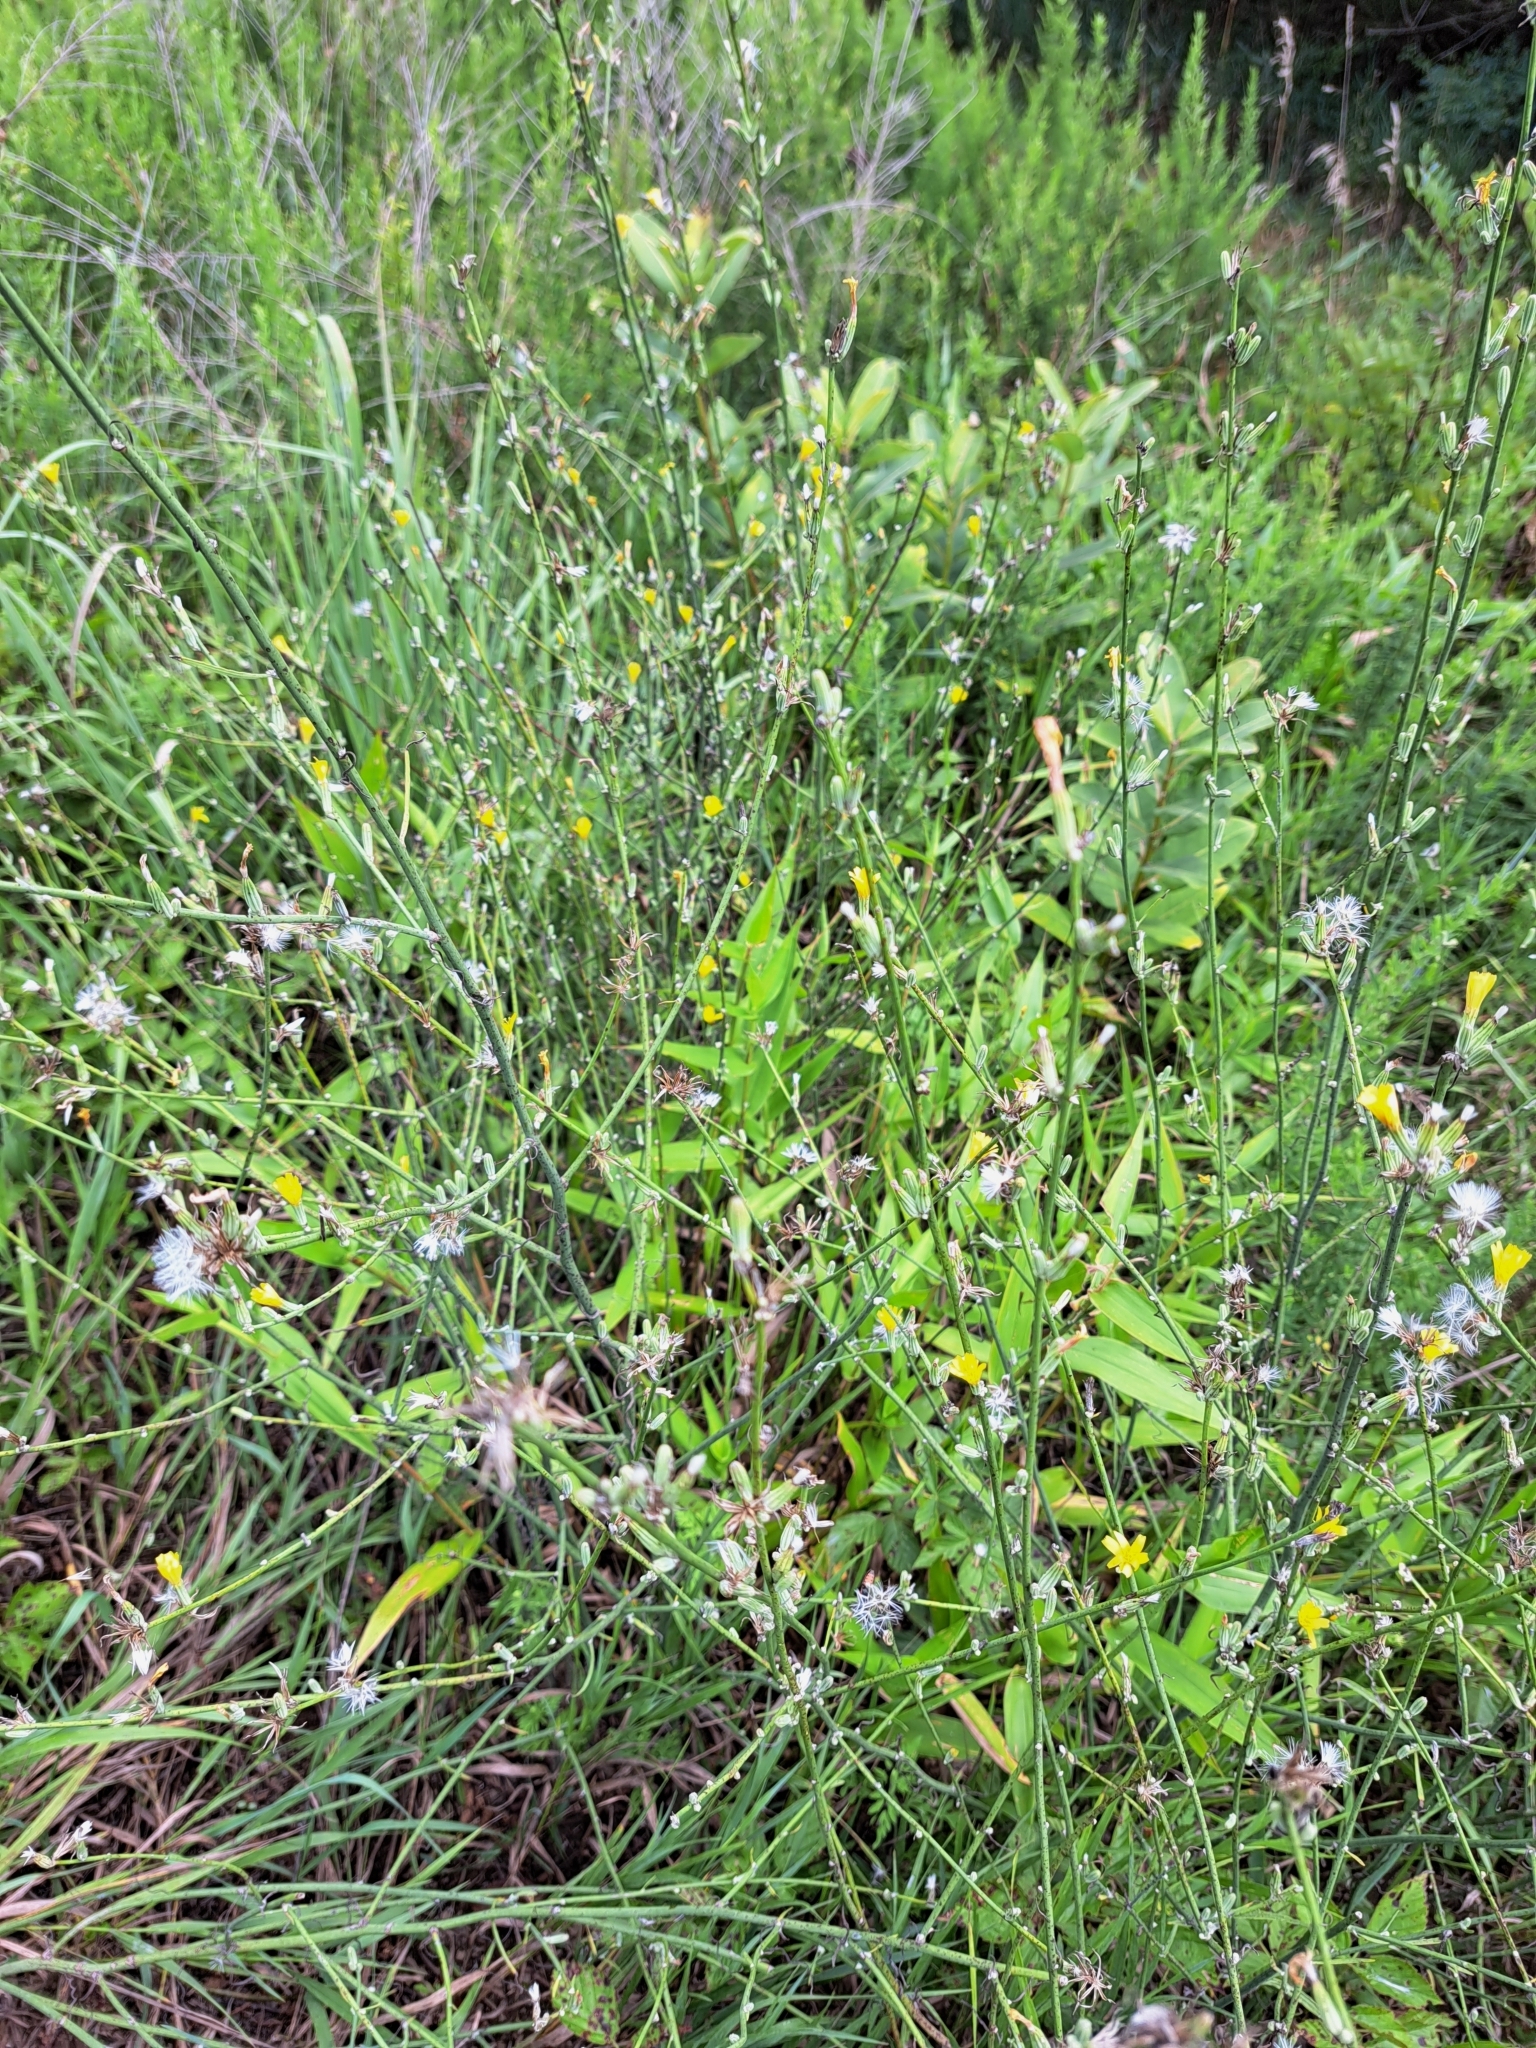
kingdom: Plantae
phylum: Tracheophyta
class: Magnoliopsida
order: Asterales
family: Asteraceae
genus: Chondrilla
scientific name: Chondrilla juncea
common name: Skeleton weed
